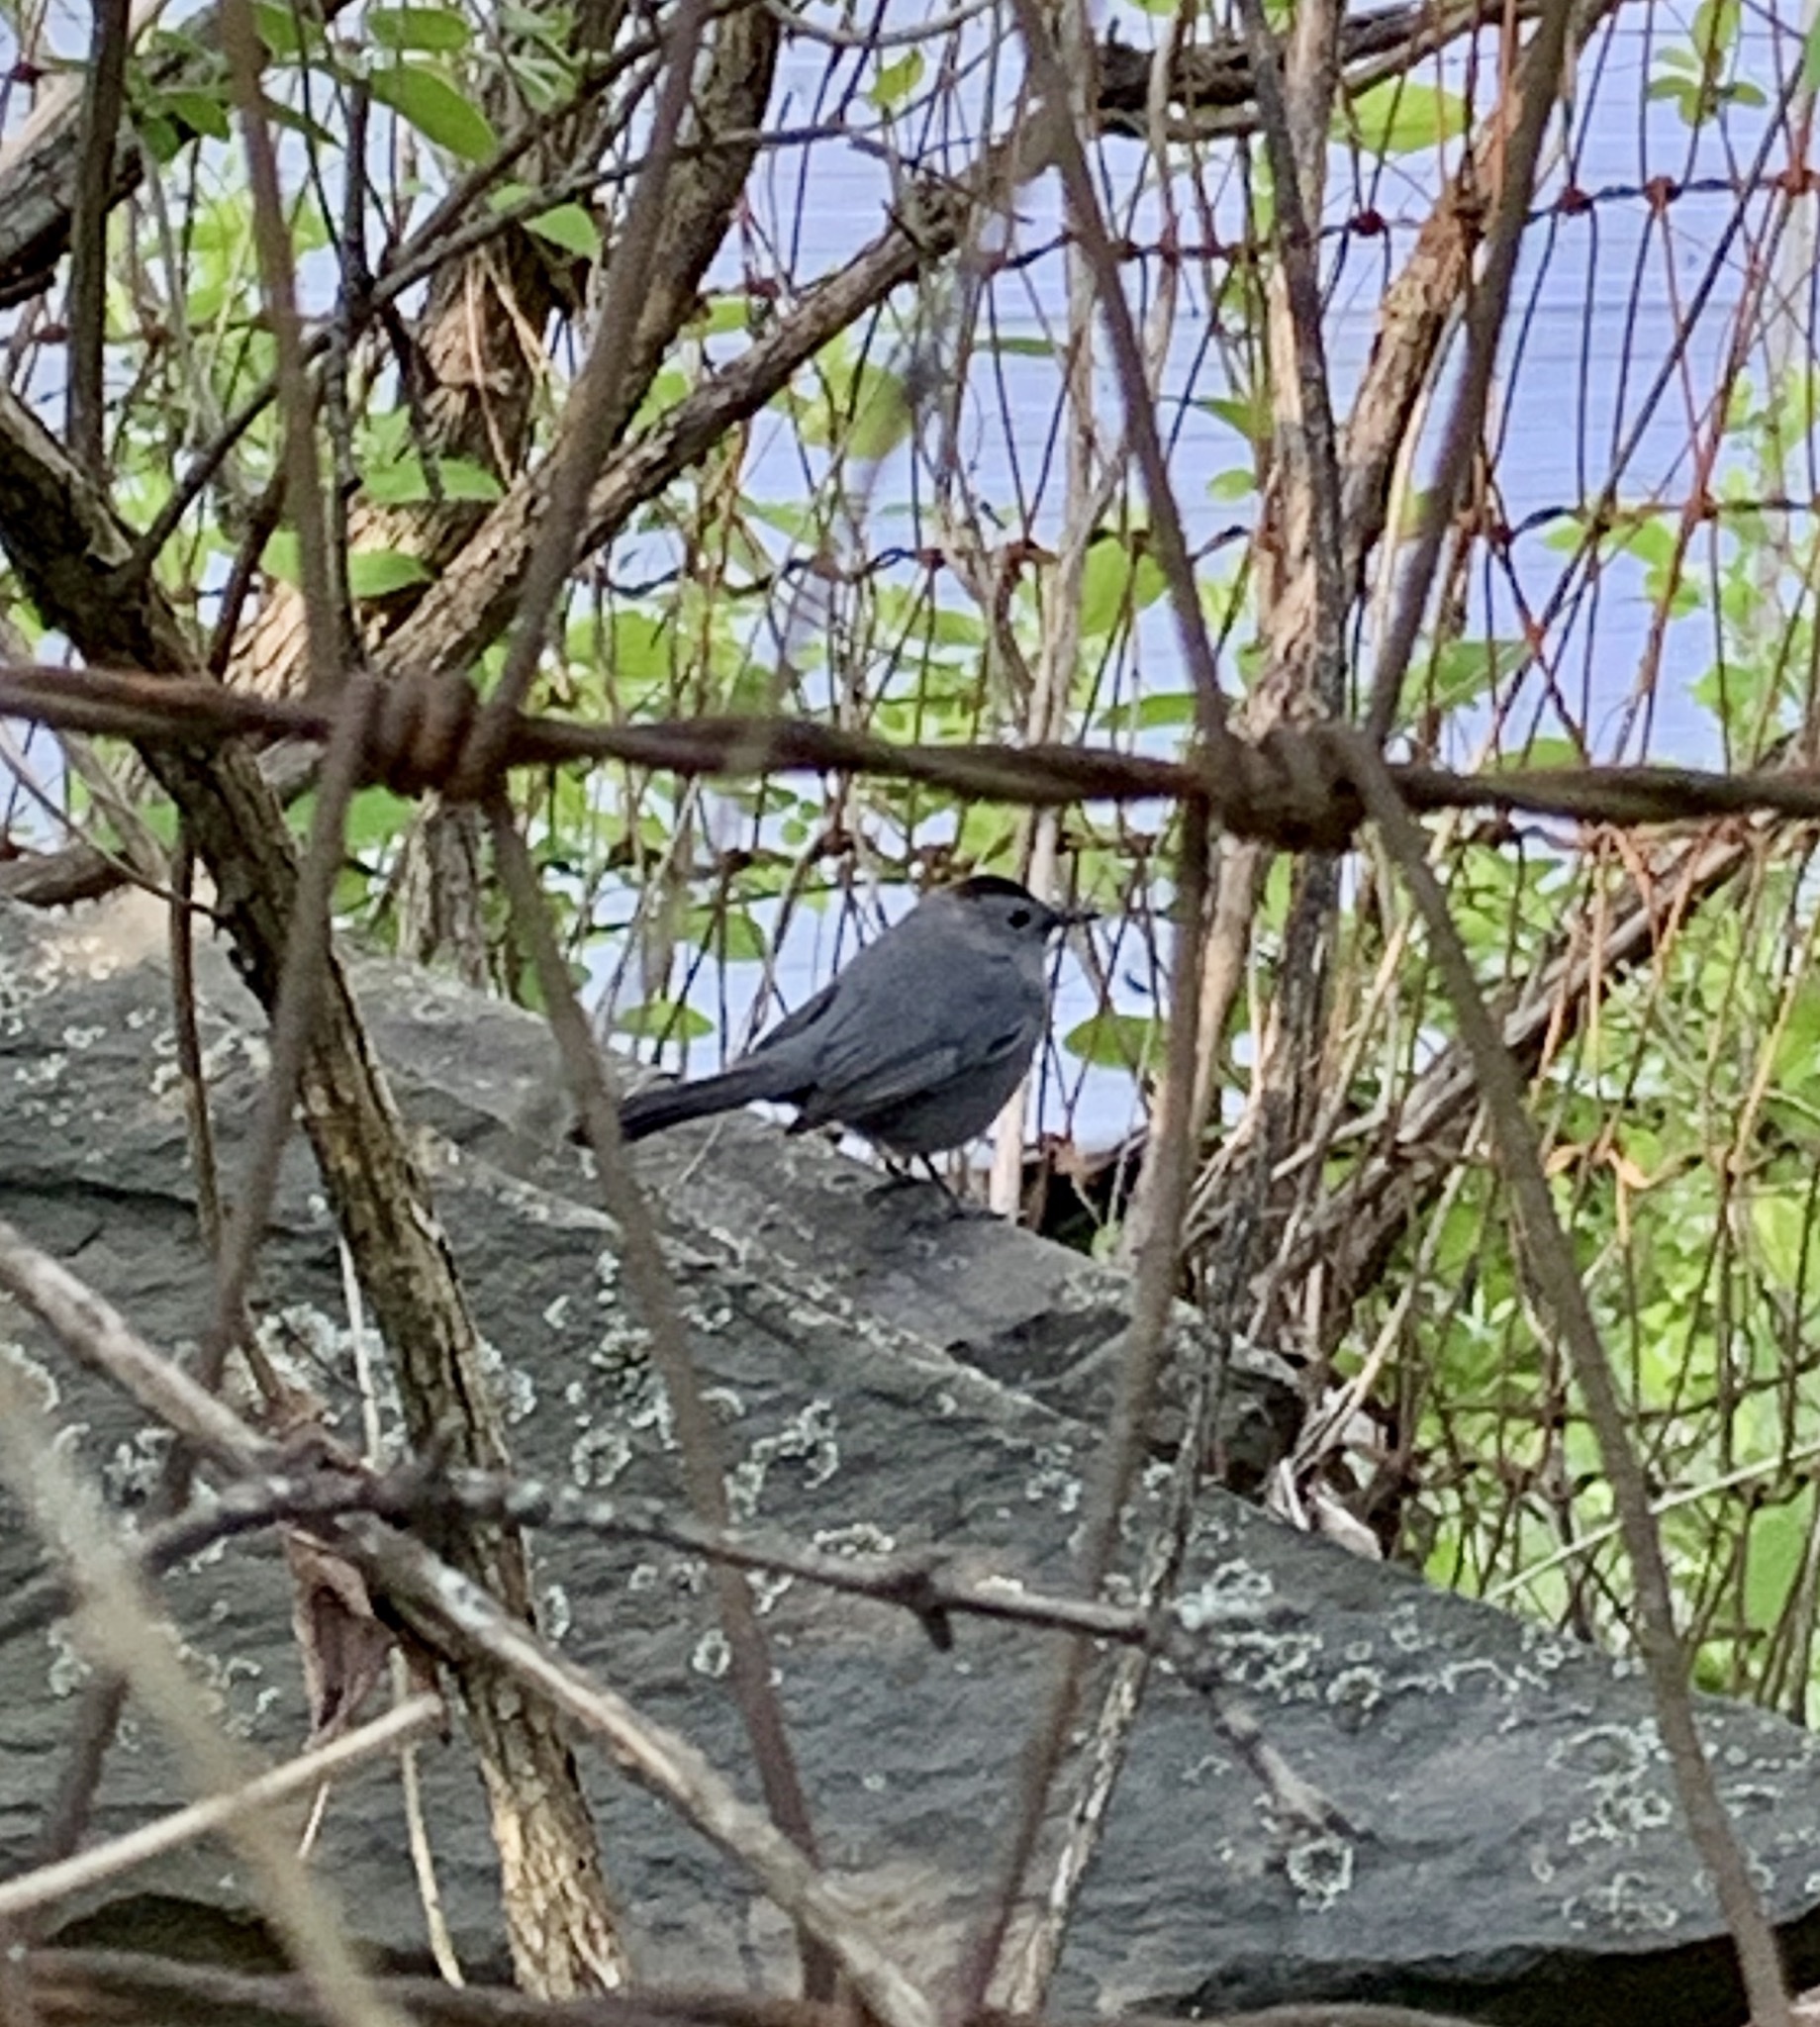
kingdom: Animalia
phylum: Chordata
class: Aves
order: Passeriformes
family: Mimidae
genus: Dumetella
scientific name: Dumetella carolinensis
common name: Gray catbird
